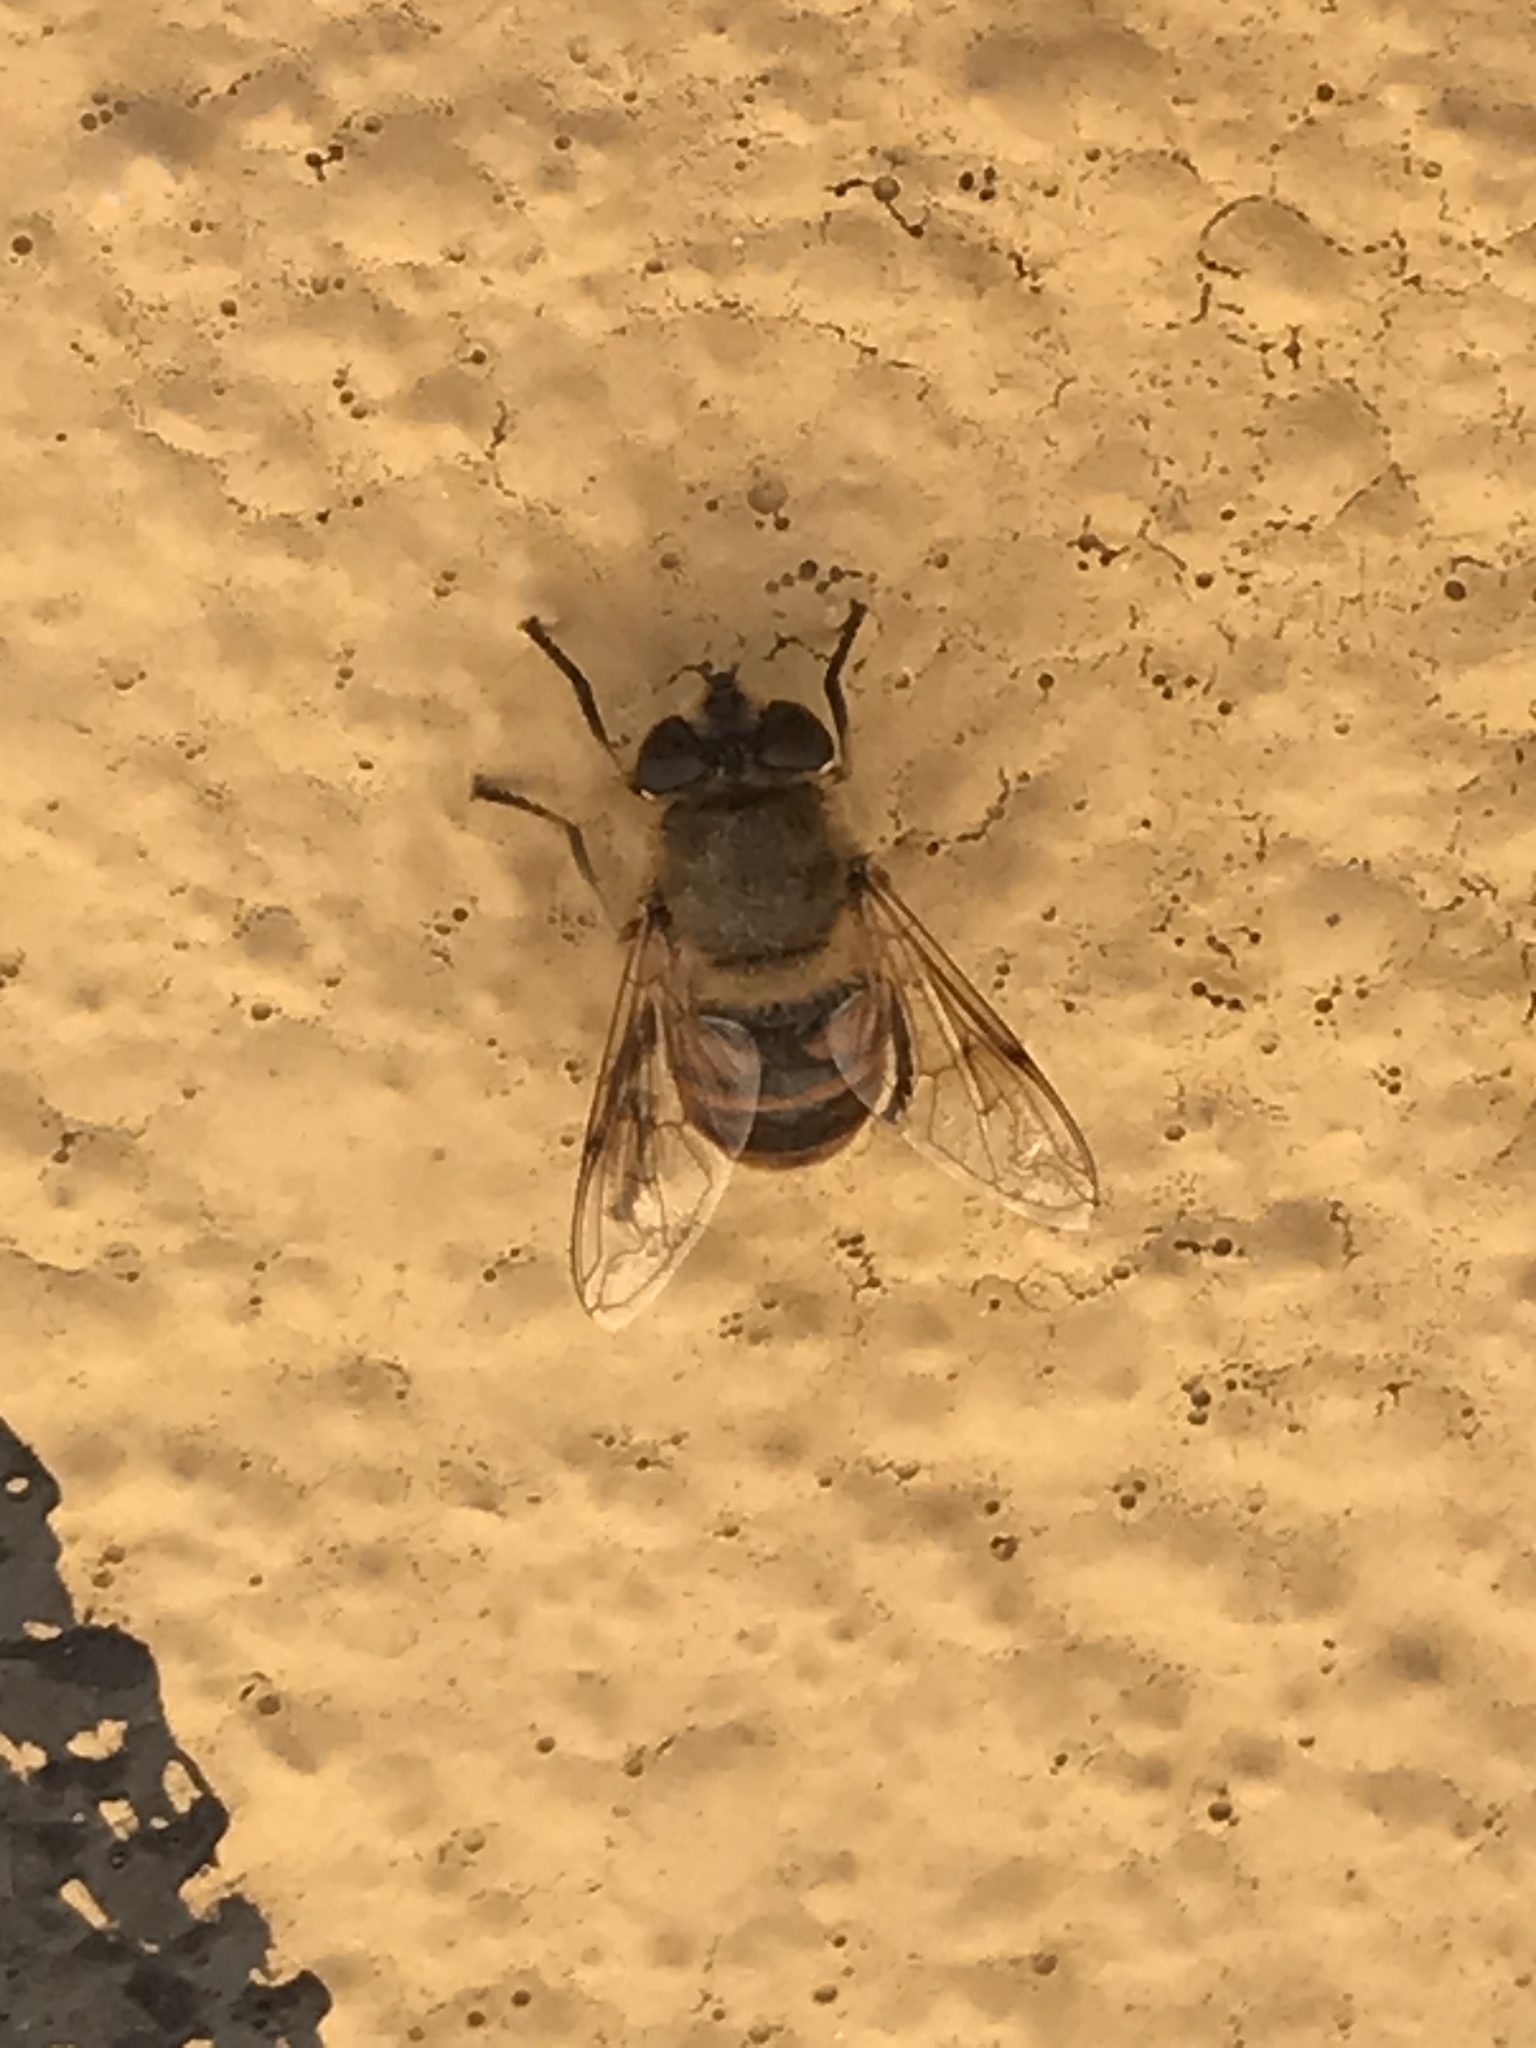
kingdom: Animalia
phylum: Arthropoda
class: Insecta
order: Diptera
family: Syrphidae
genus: Eristalis
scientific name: Eristalis tenax
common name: Drone fly
